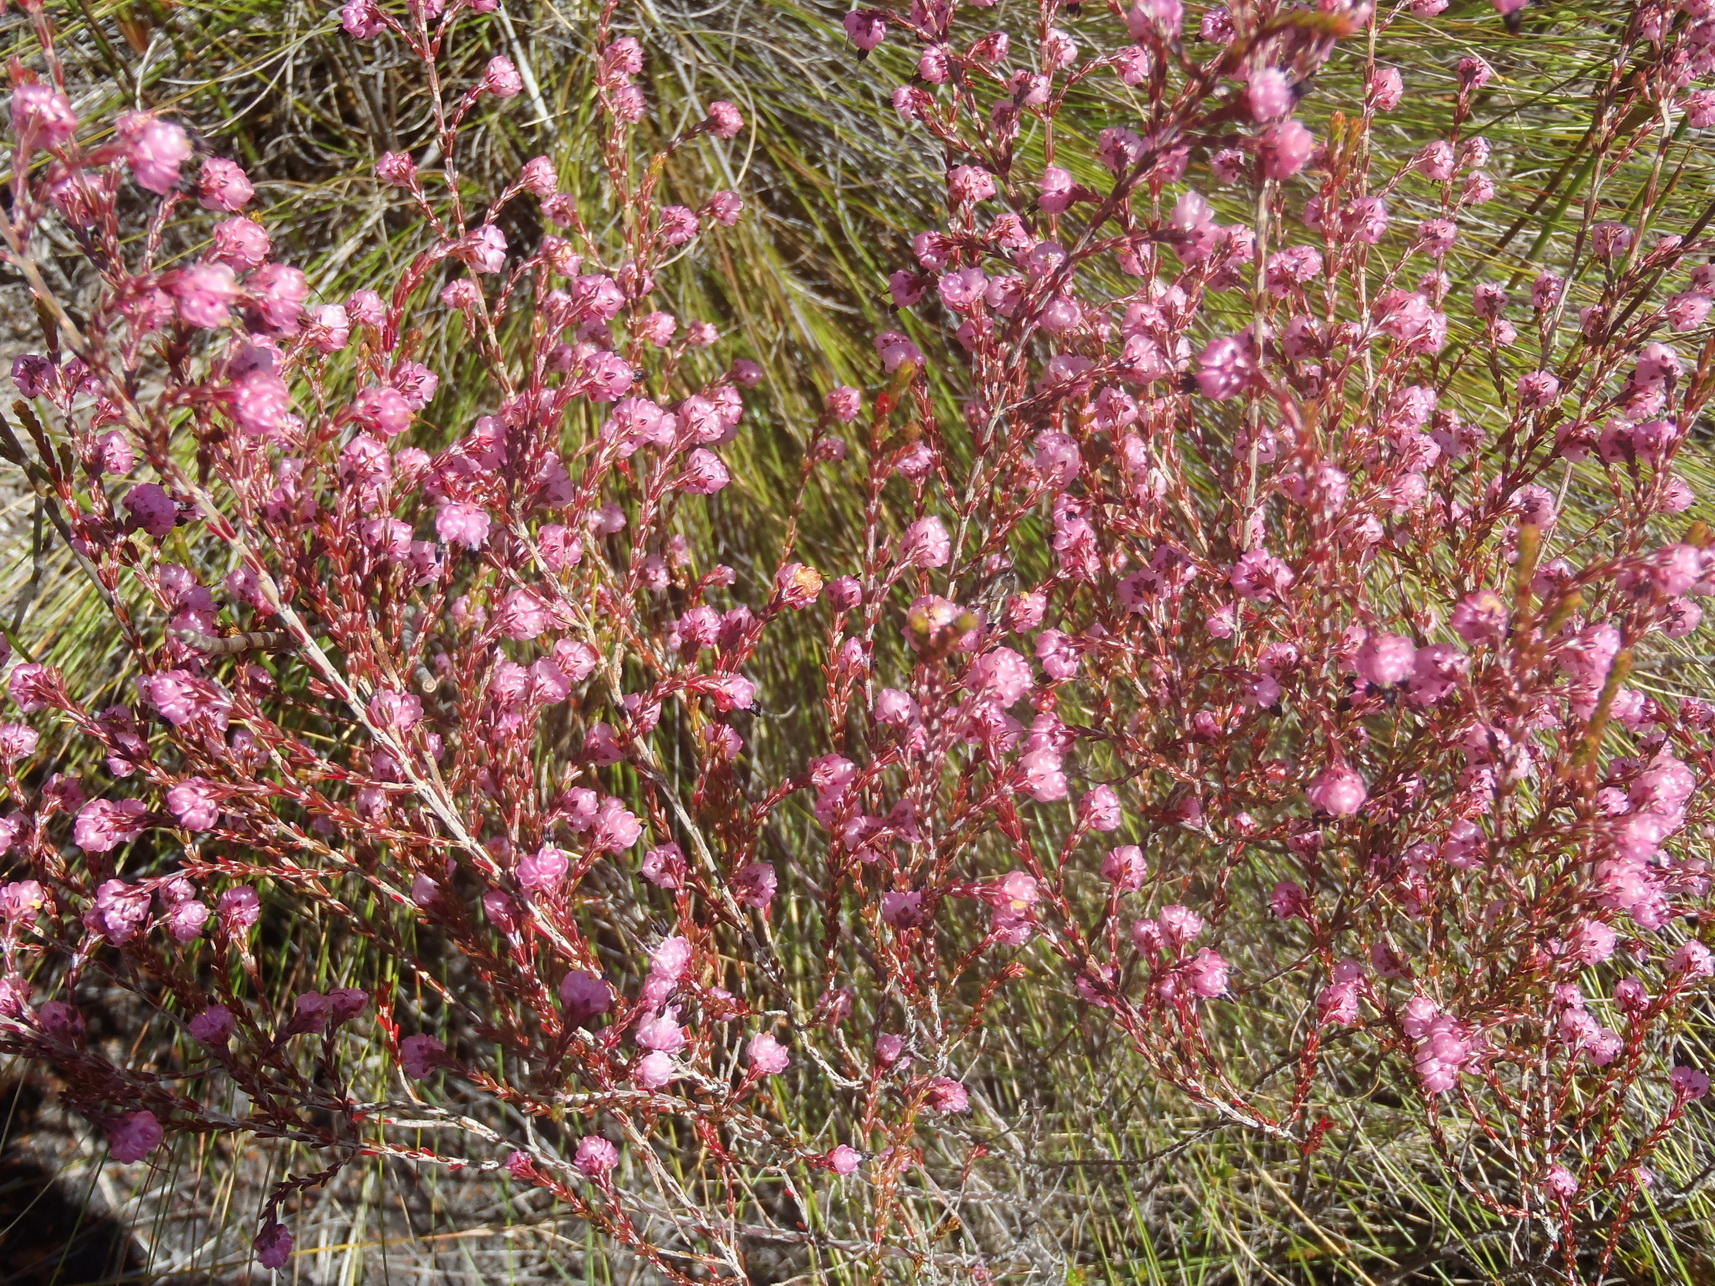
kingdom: Plantae
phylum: Tracheophyta
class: Magnoliopsida
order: Ericales
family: Ericaceae
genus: Erica
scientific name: Erica spumosa
